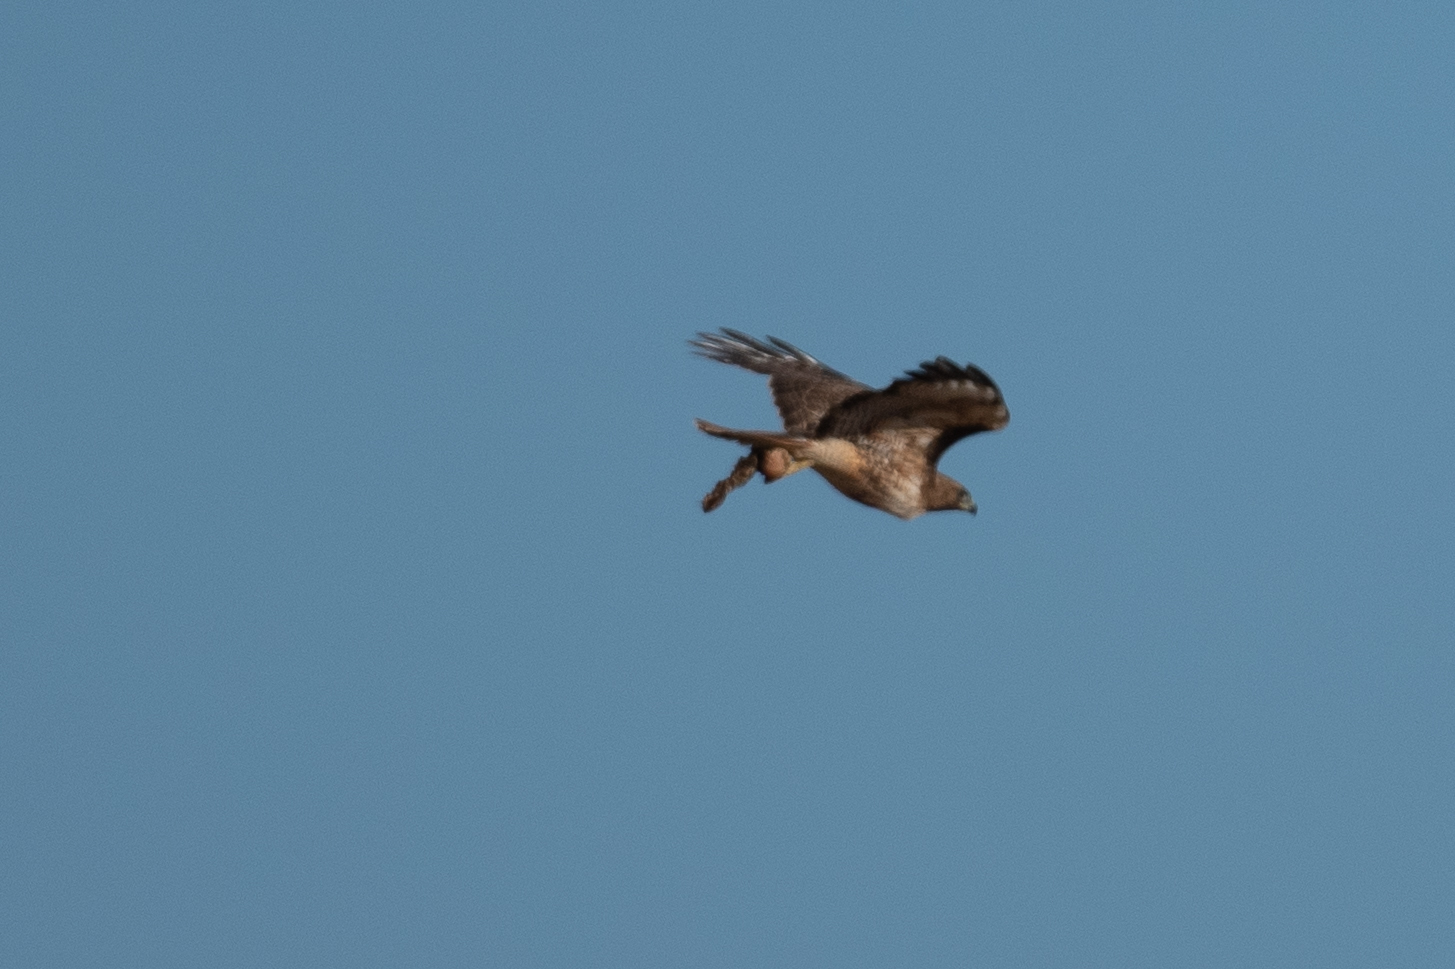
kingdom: Animalia
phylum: Chordata
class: Aves
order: Accipitriformes
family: Accipitridae
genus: Buteo
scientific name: Buteo jamaicensis
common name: Red-tailed hawk
